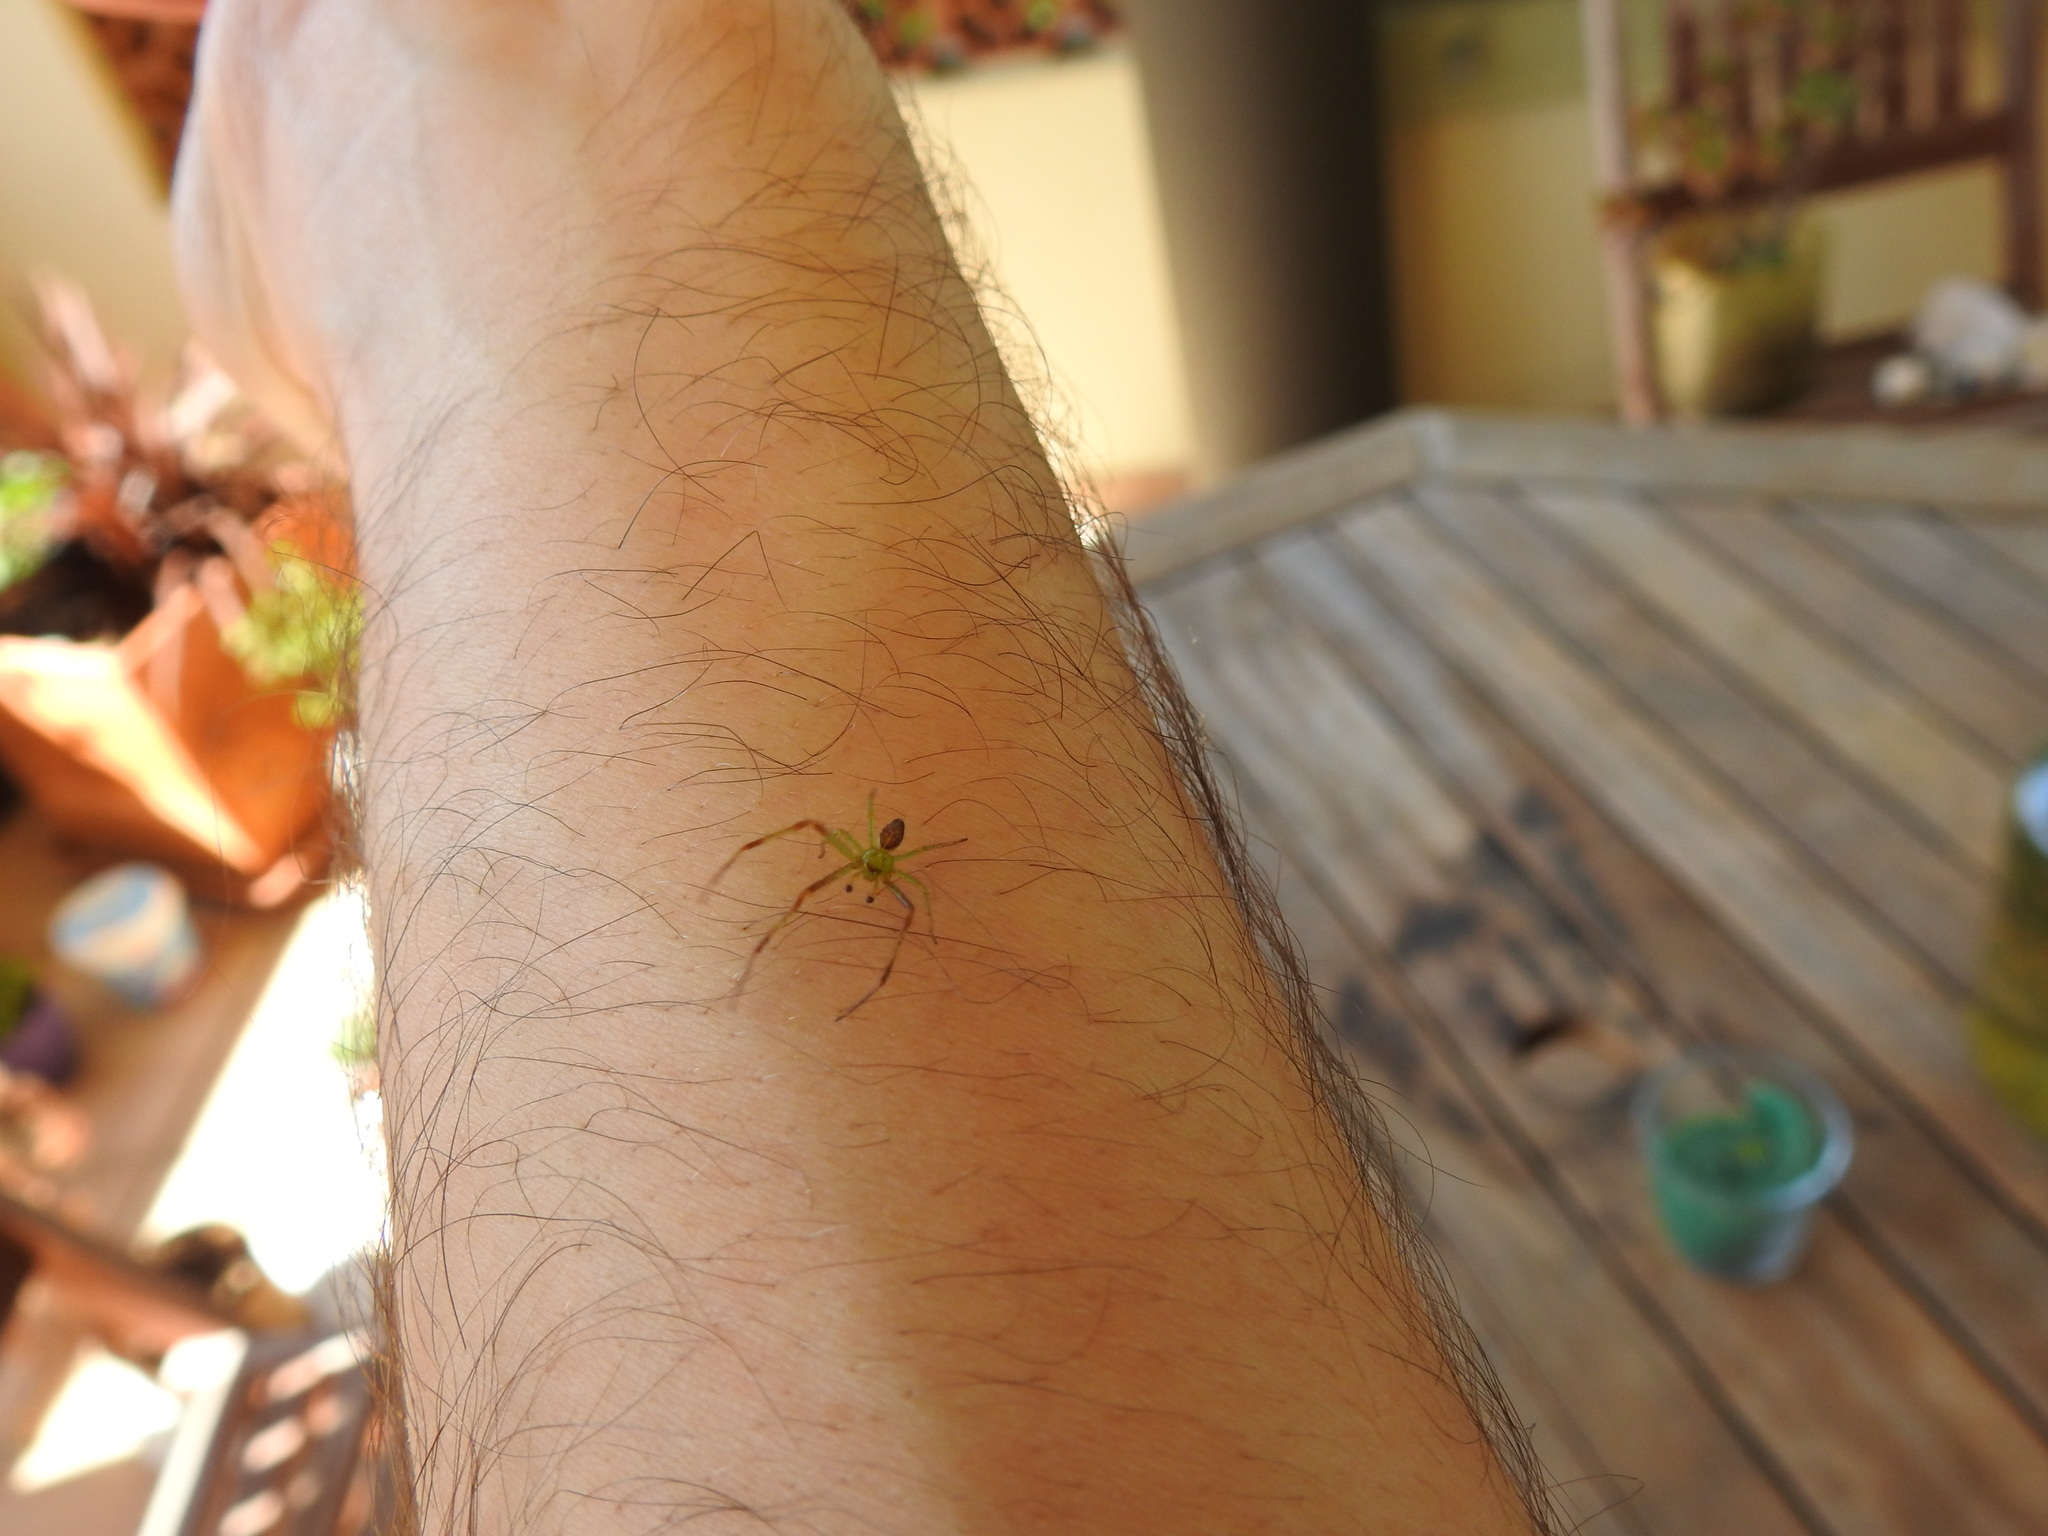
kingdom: Animalia
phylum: Arthropoda
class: Arachnida
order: Araneae
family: Thomisidae
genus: Diaea
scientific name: Diaea dorsata
